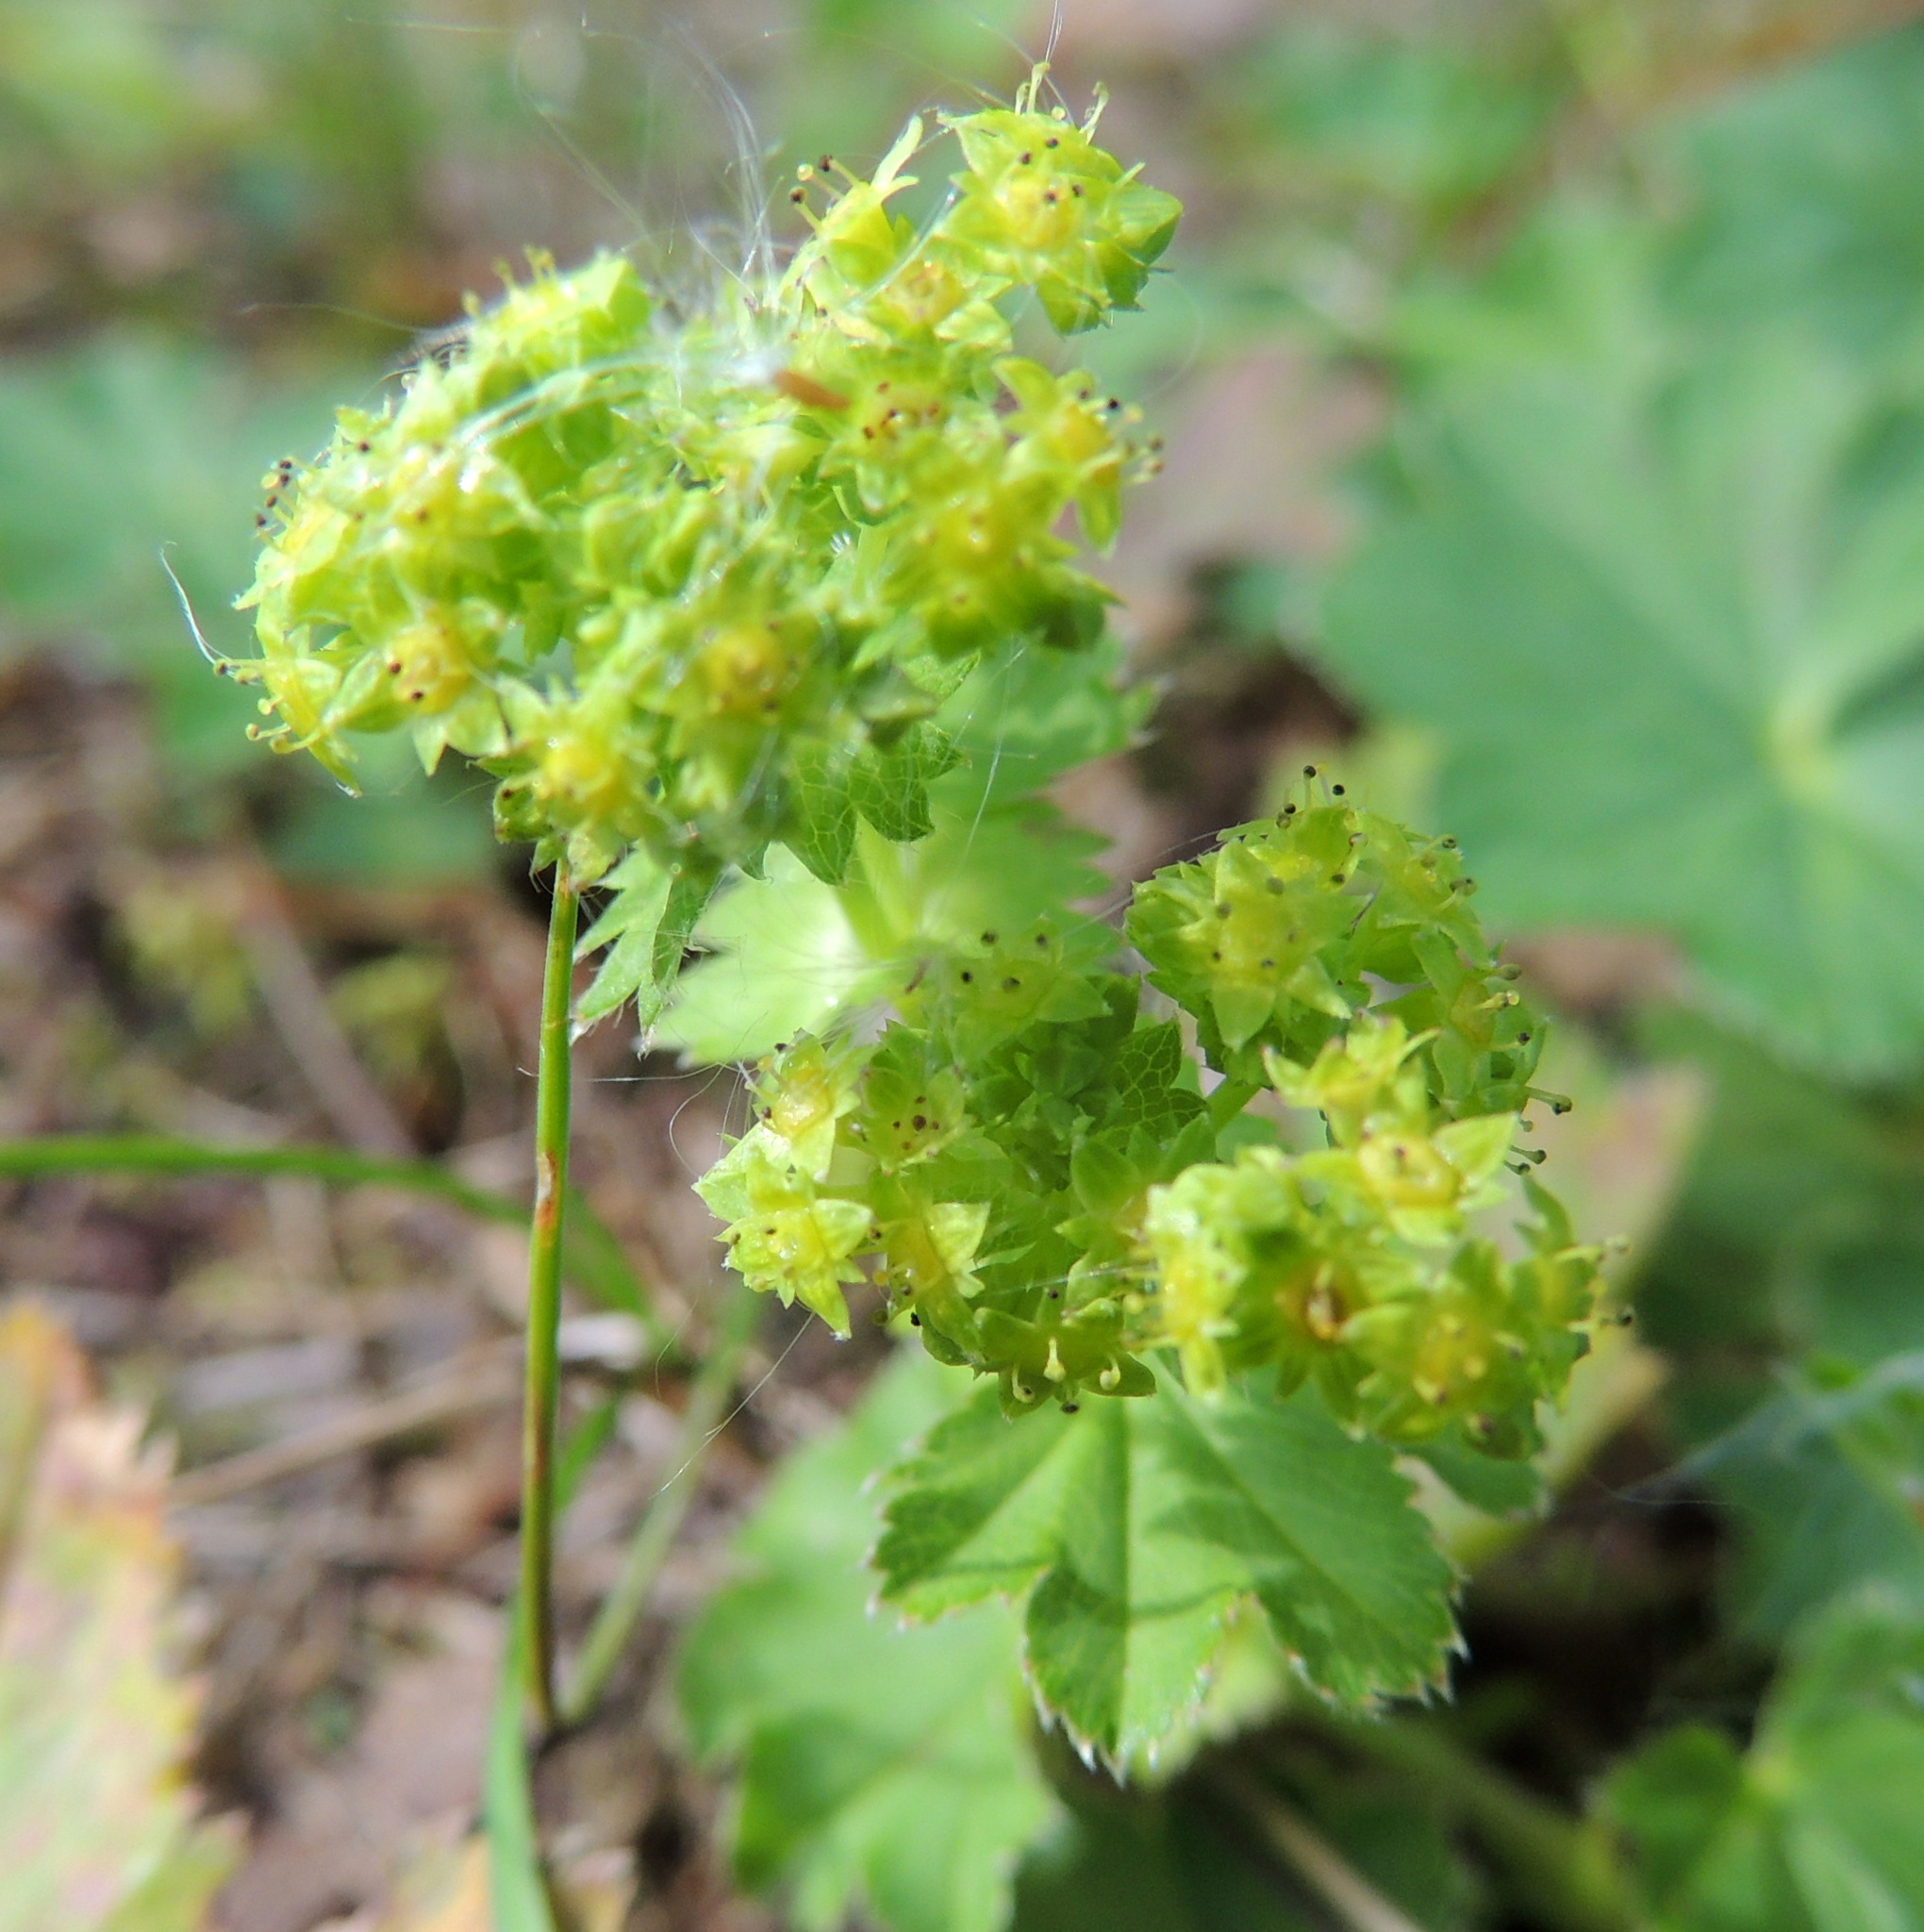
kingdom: Plantae
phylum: Tracheophyta
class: Magnoliopsida
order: Rosales
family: Rosaceae
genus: Alchemilla
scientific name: Alchemilla
